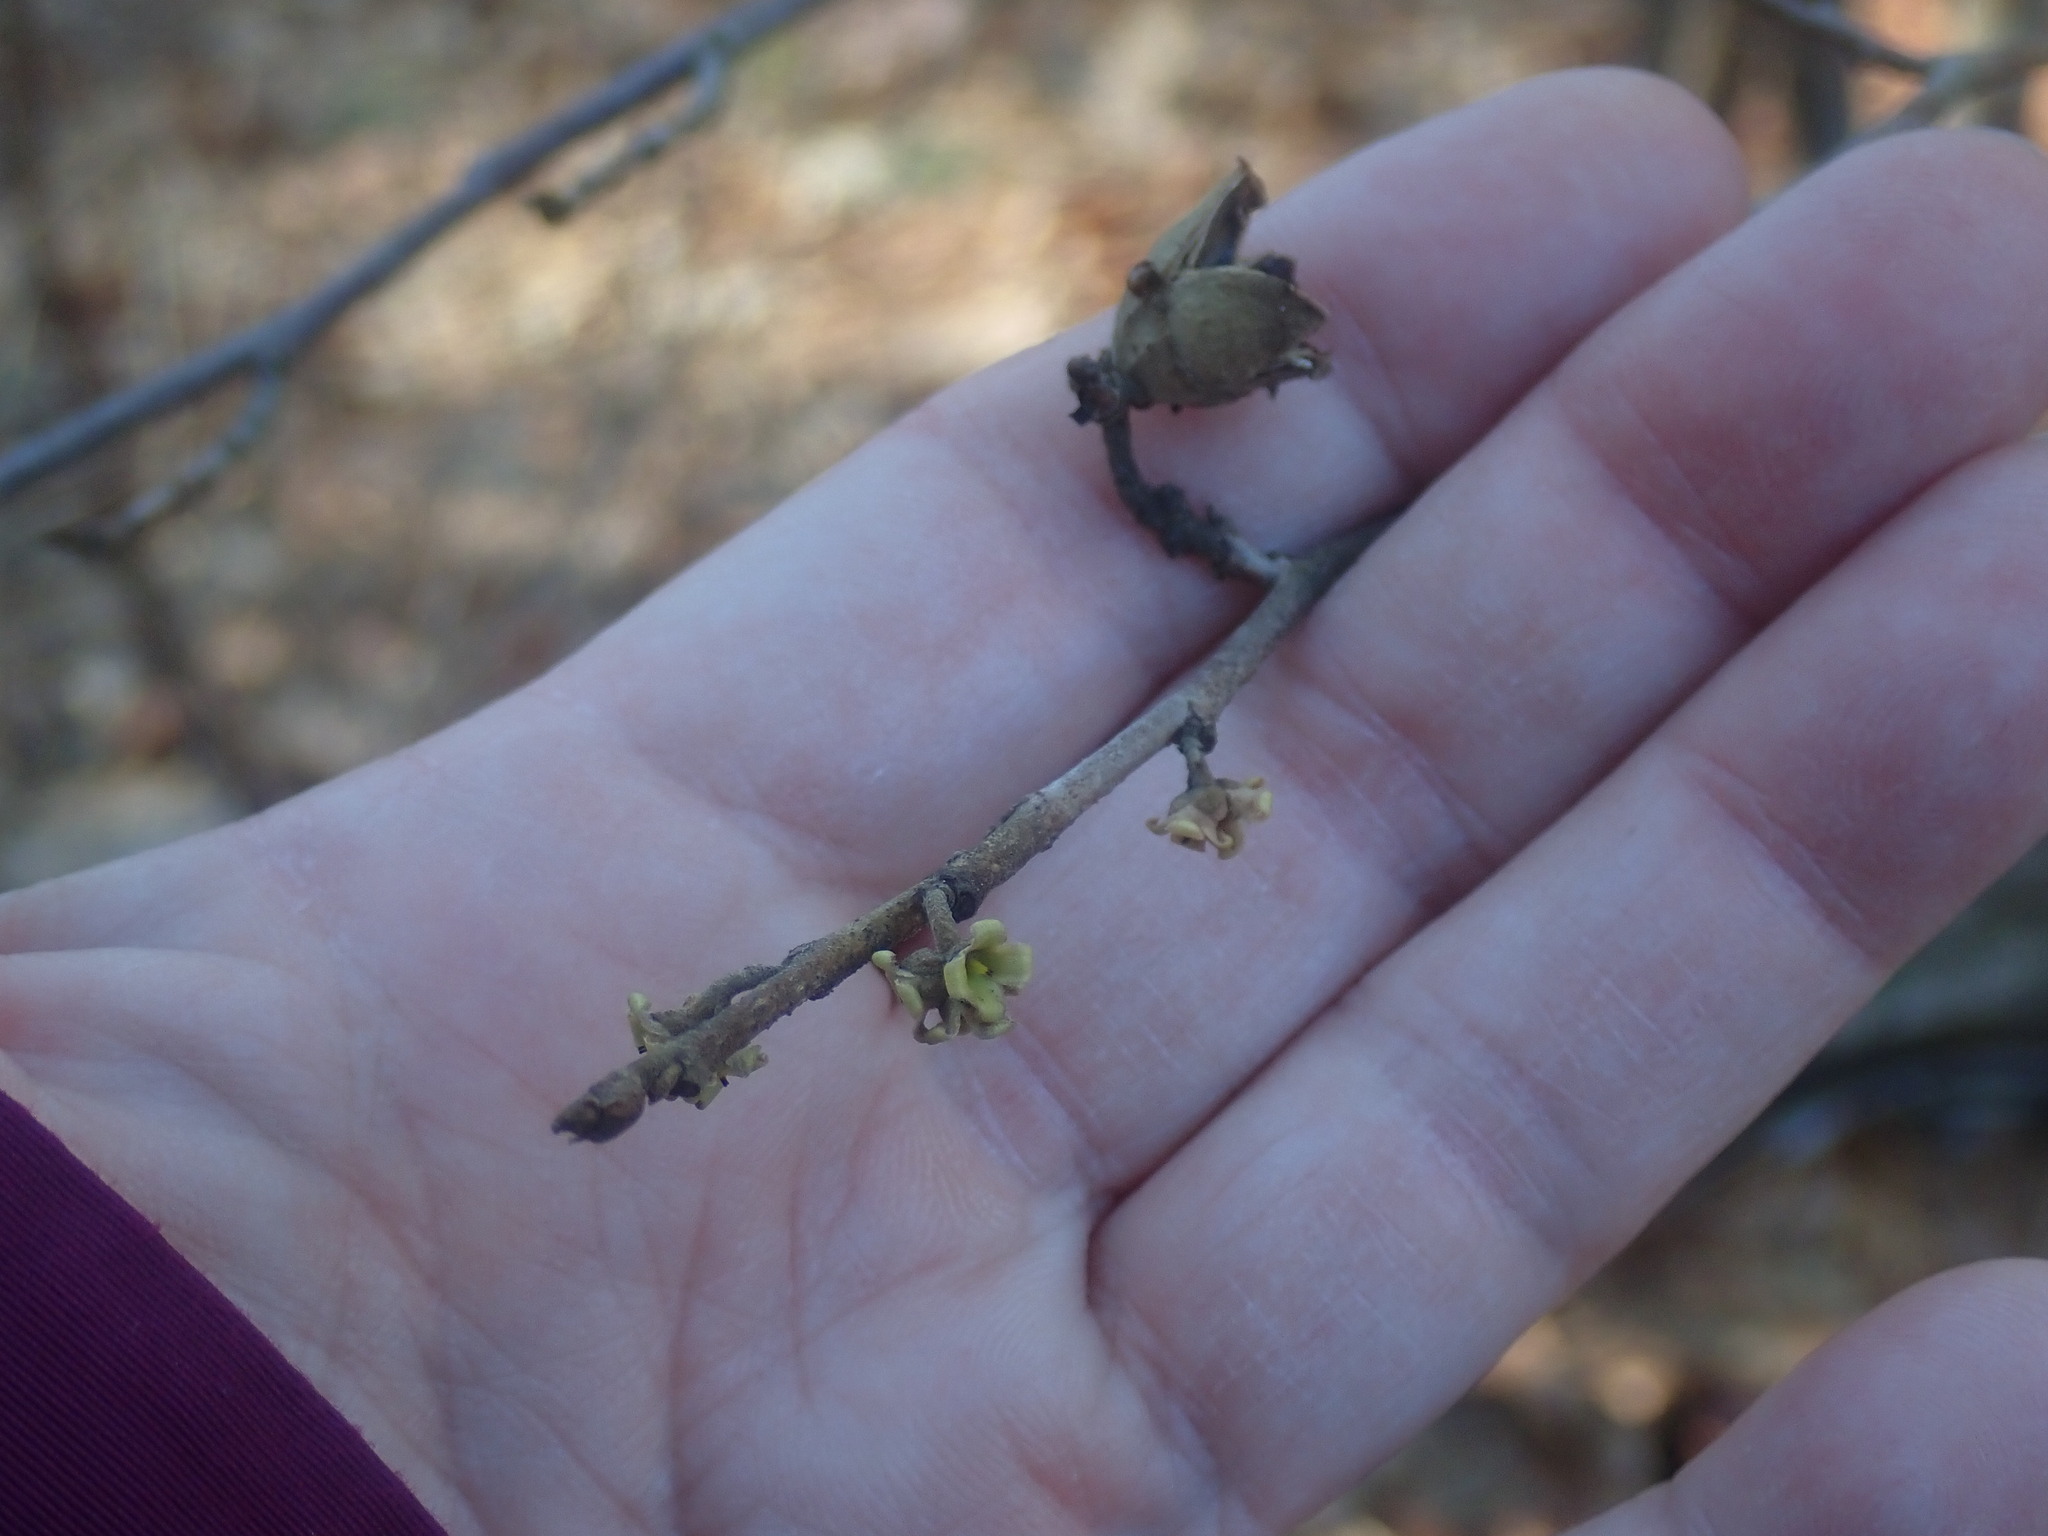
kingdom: Plantae
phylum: Tracheophyta
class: Magnoliopsida
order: Saxifragales
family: Hamamelidaceae
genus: Hamamelis
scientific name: Hamamelis virginiana
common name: Witch-hazel
